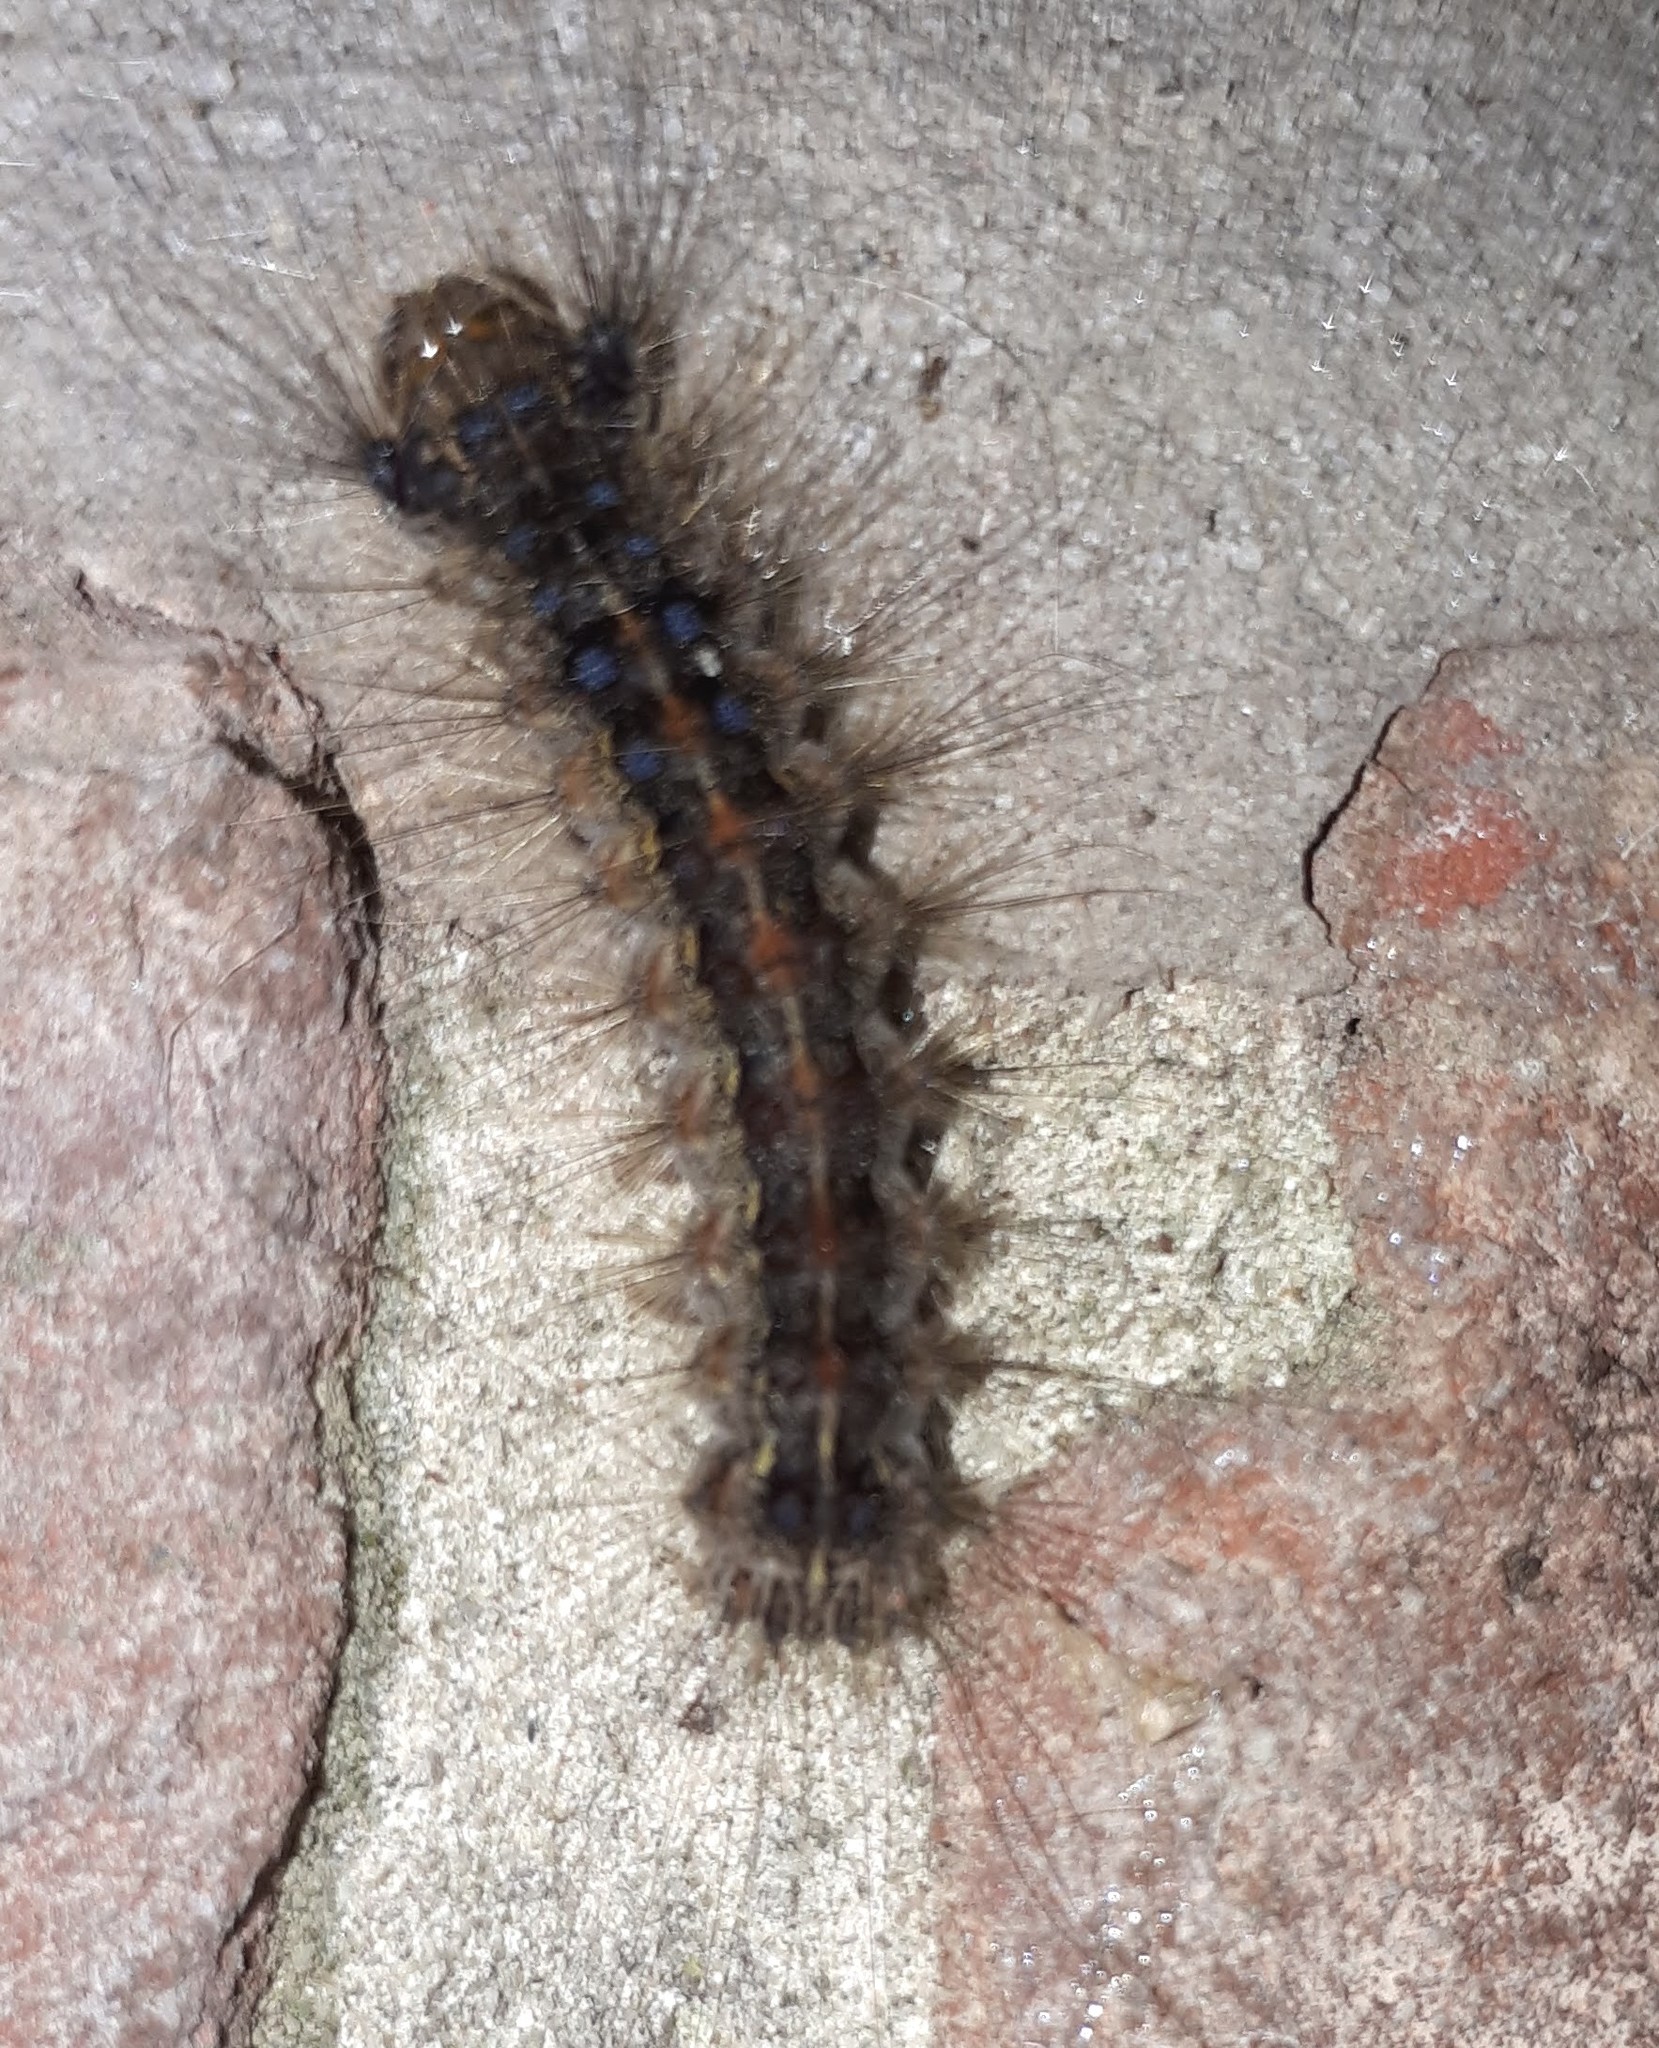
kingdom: Animalia
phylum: Arthropoda
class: Insecta
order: Lepidoptera
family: Erebidae
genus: Lymantria
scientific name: Lymantria dispar
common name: Gypsy moth
